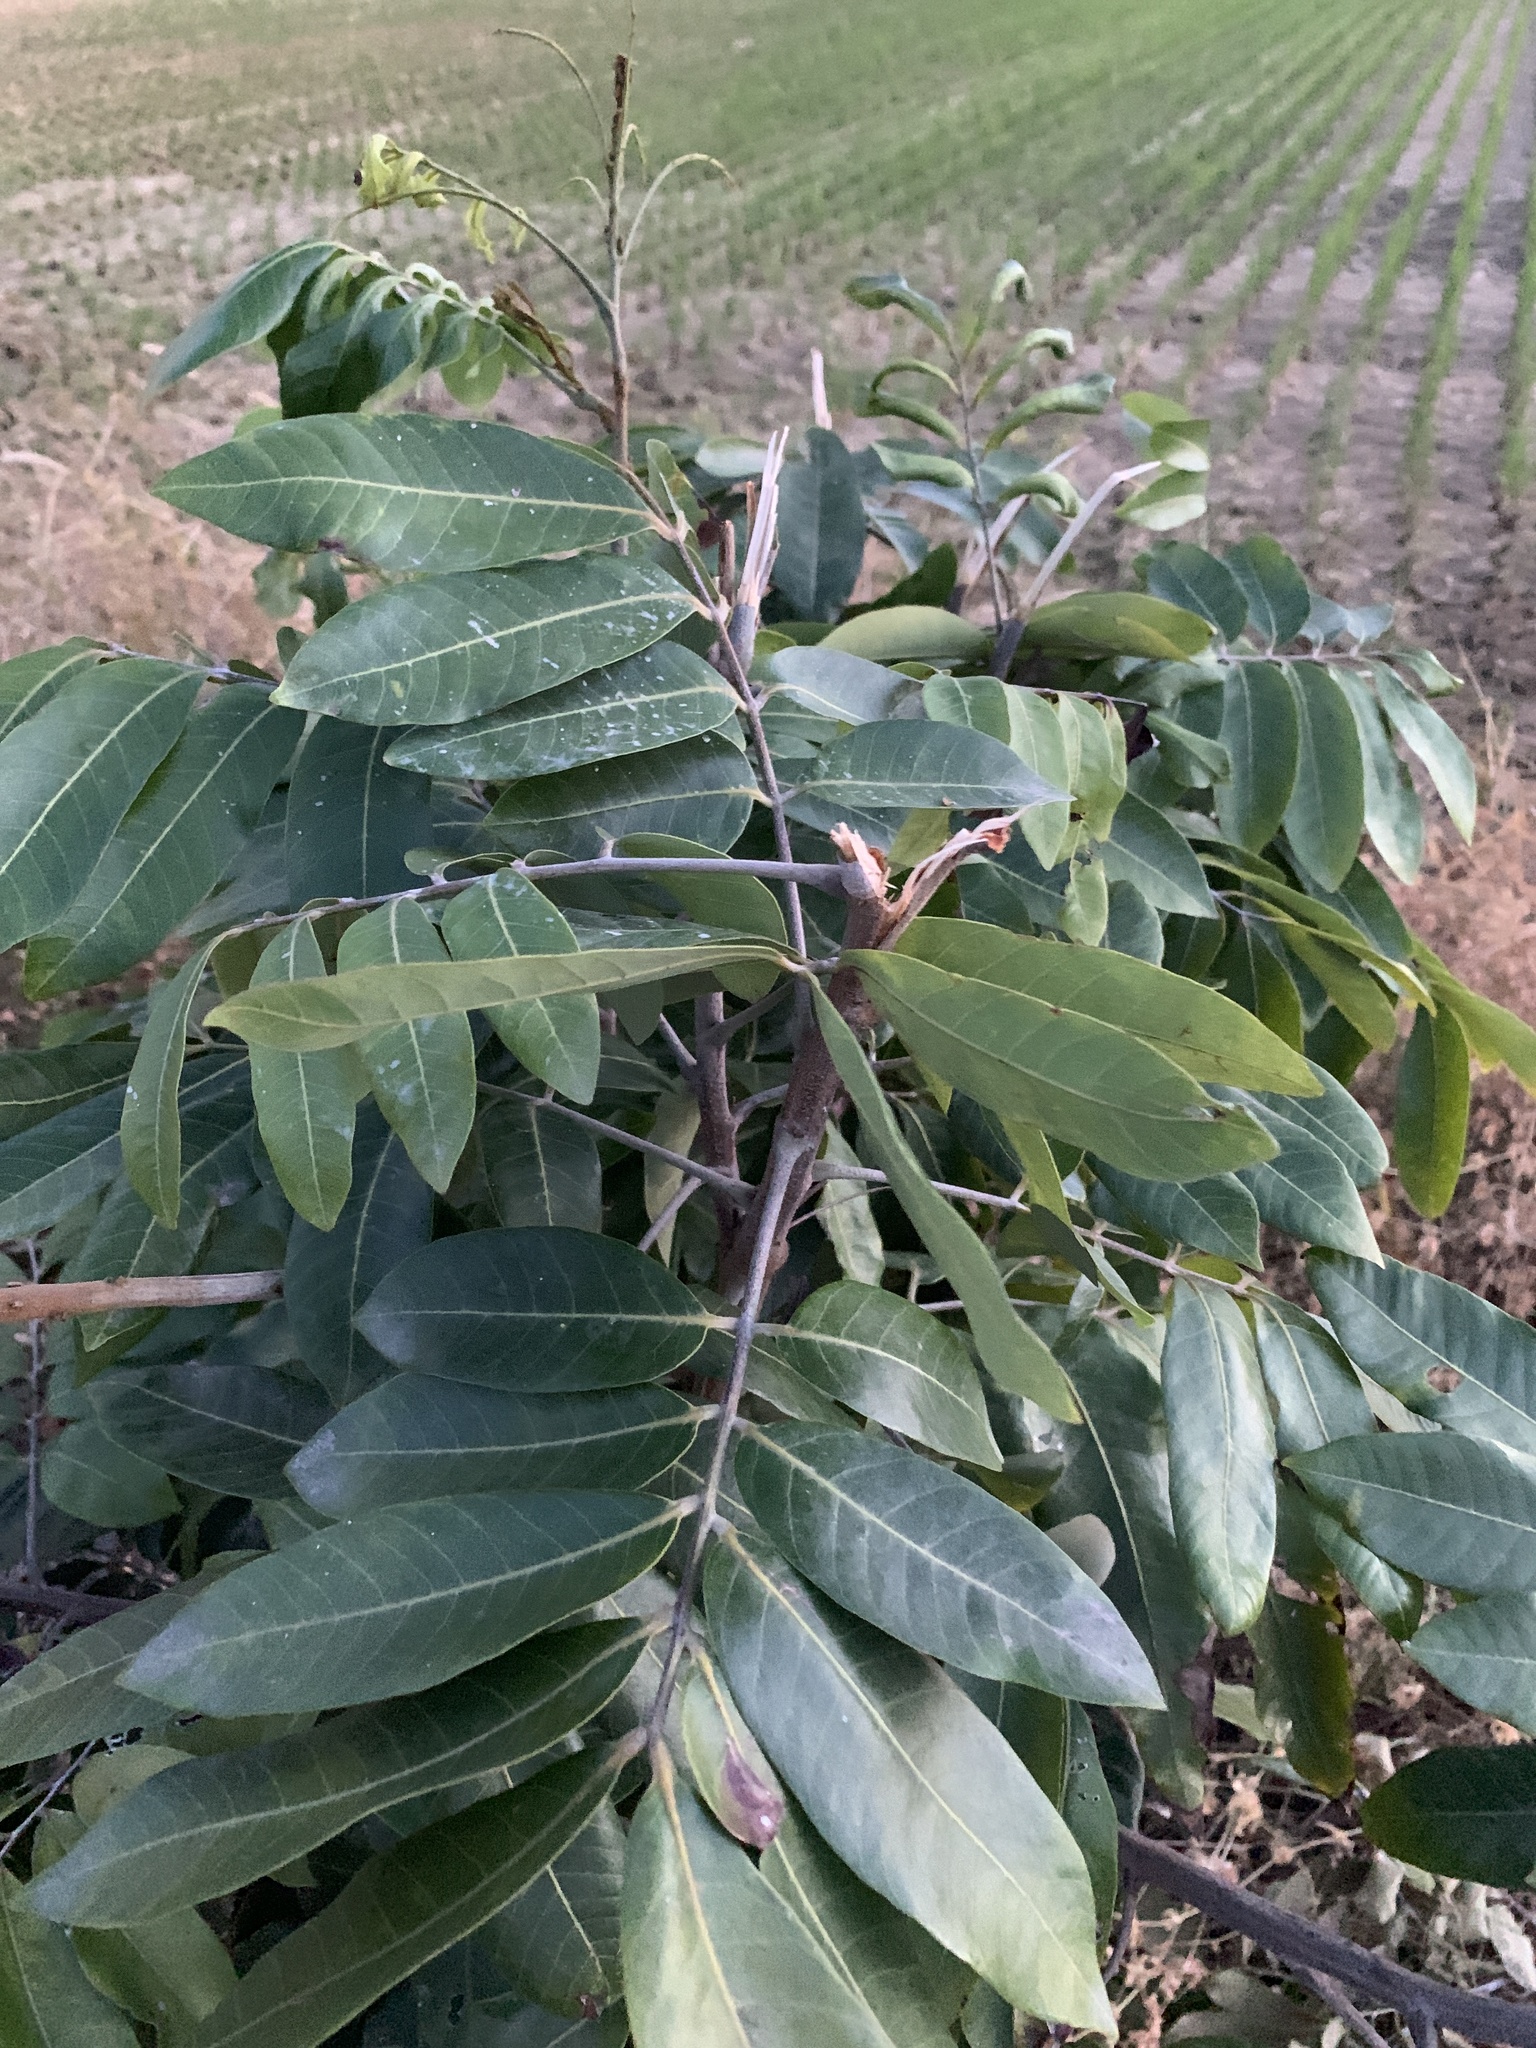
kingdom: Plantae
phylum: Tracheophyta
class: Magnoliopsida
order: Sapindales
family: Sapindaceae
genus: Dimocarpus
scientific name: Dimocarpus longan
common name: Longan
